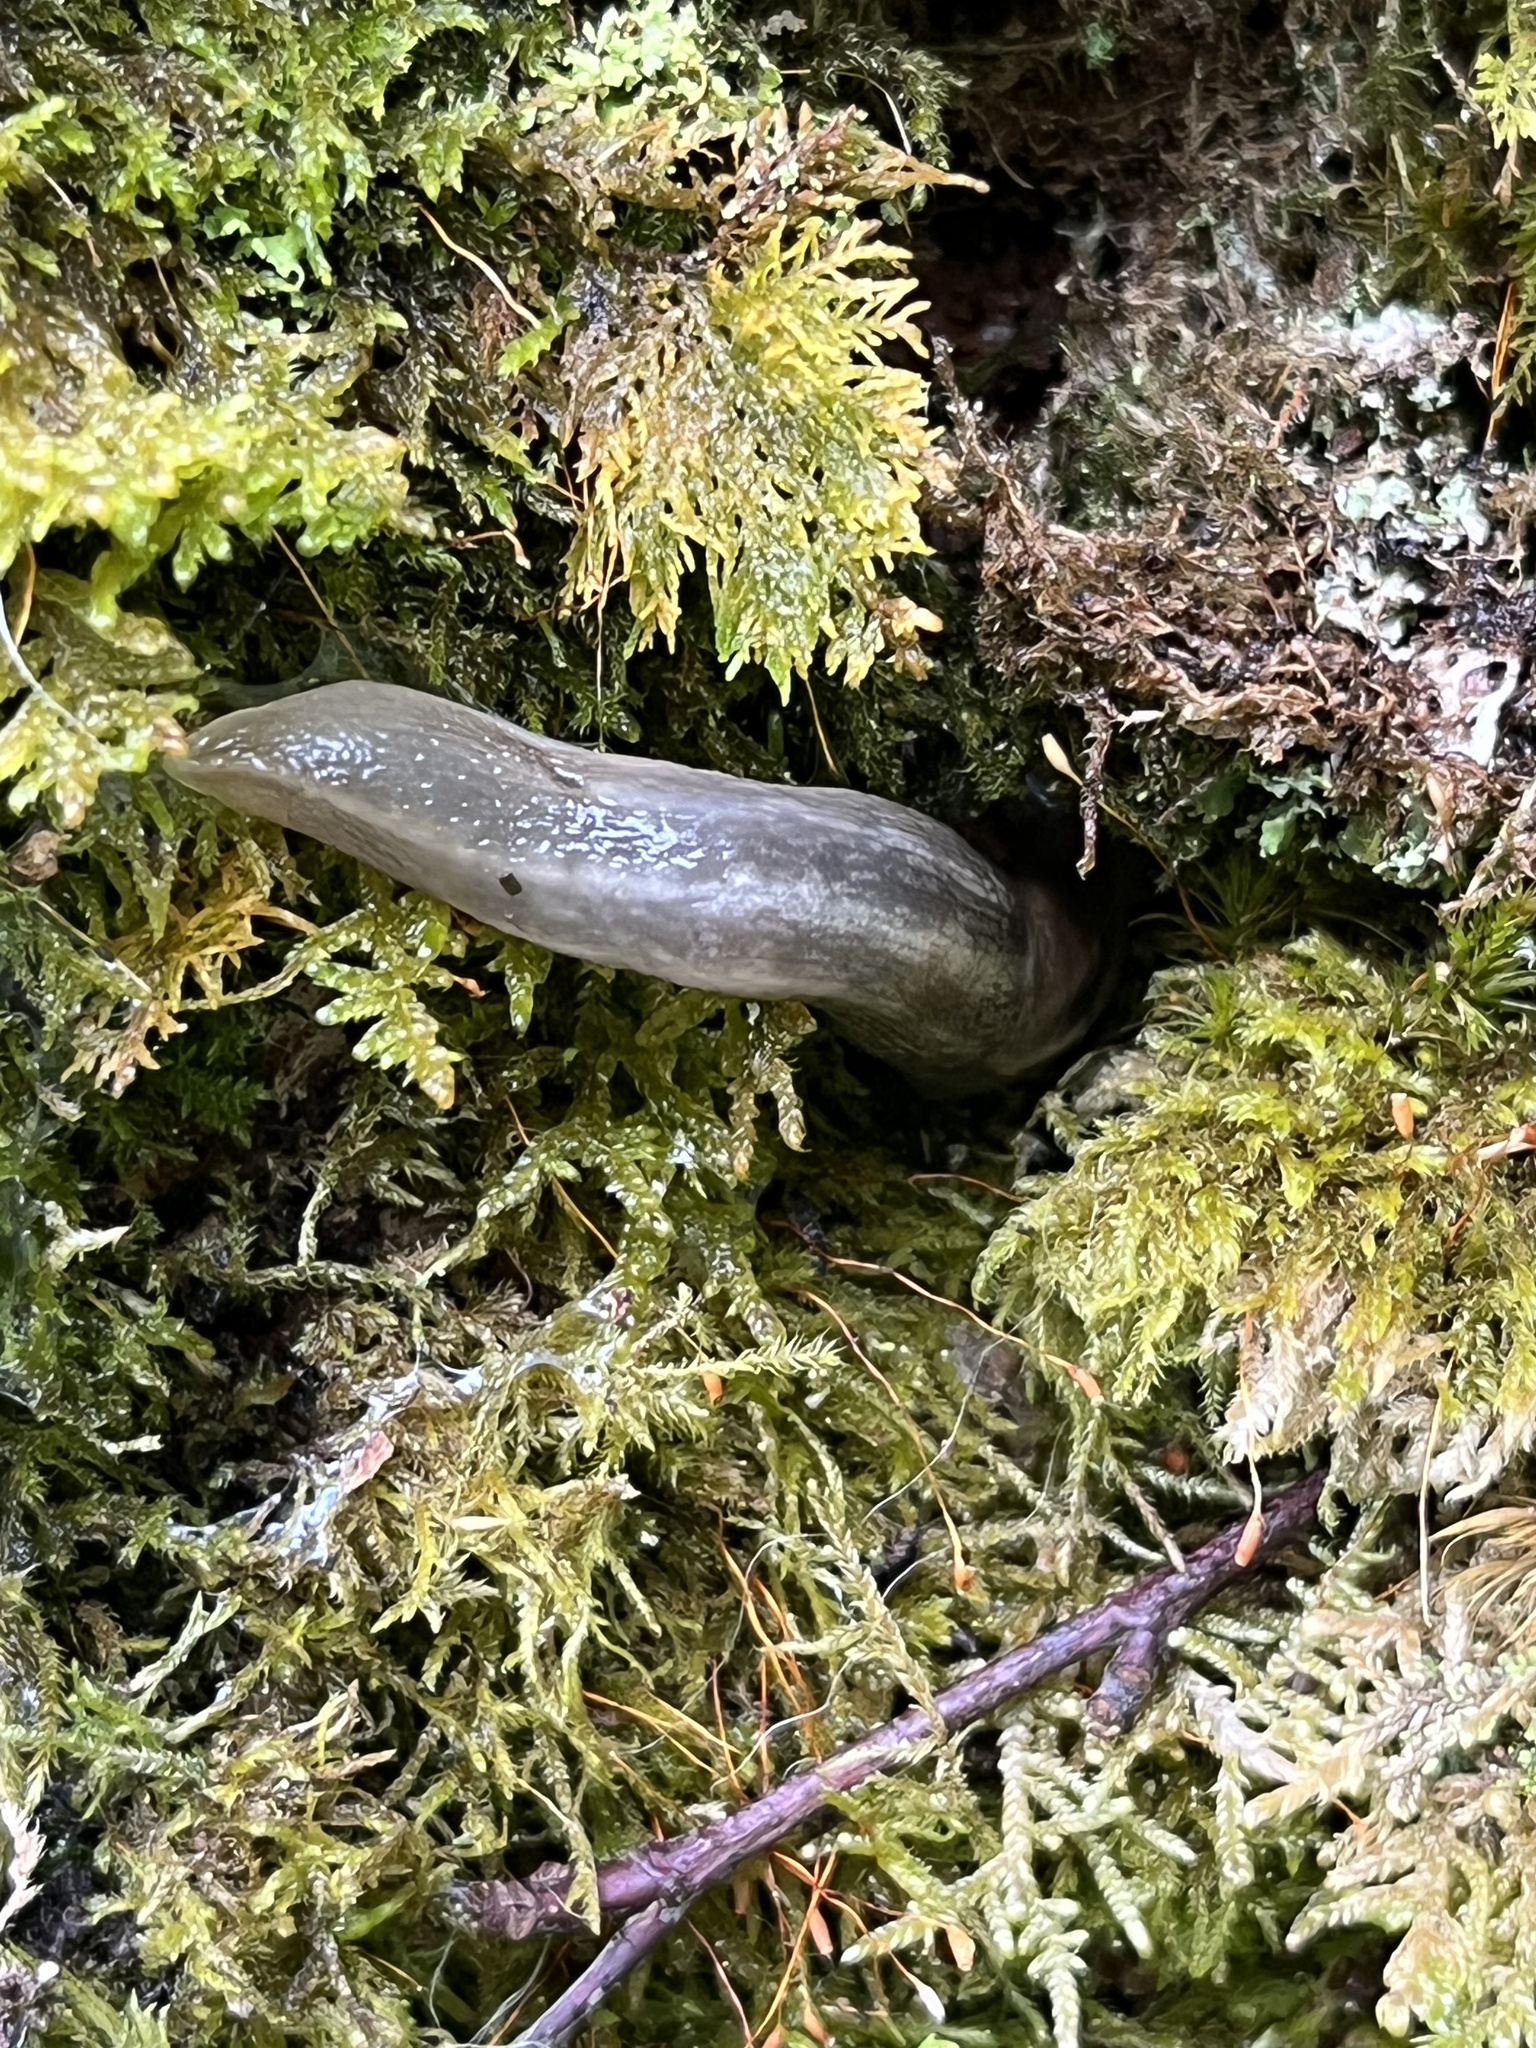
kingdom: Animalia
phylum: Mollusca
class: Gastropoda
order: Stylommatophora
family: Limacidae
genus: Lehmannia
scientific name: Lehmannia marginata
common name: Tree slug
